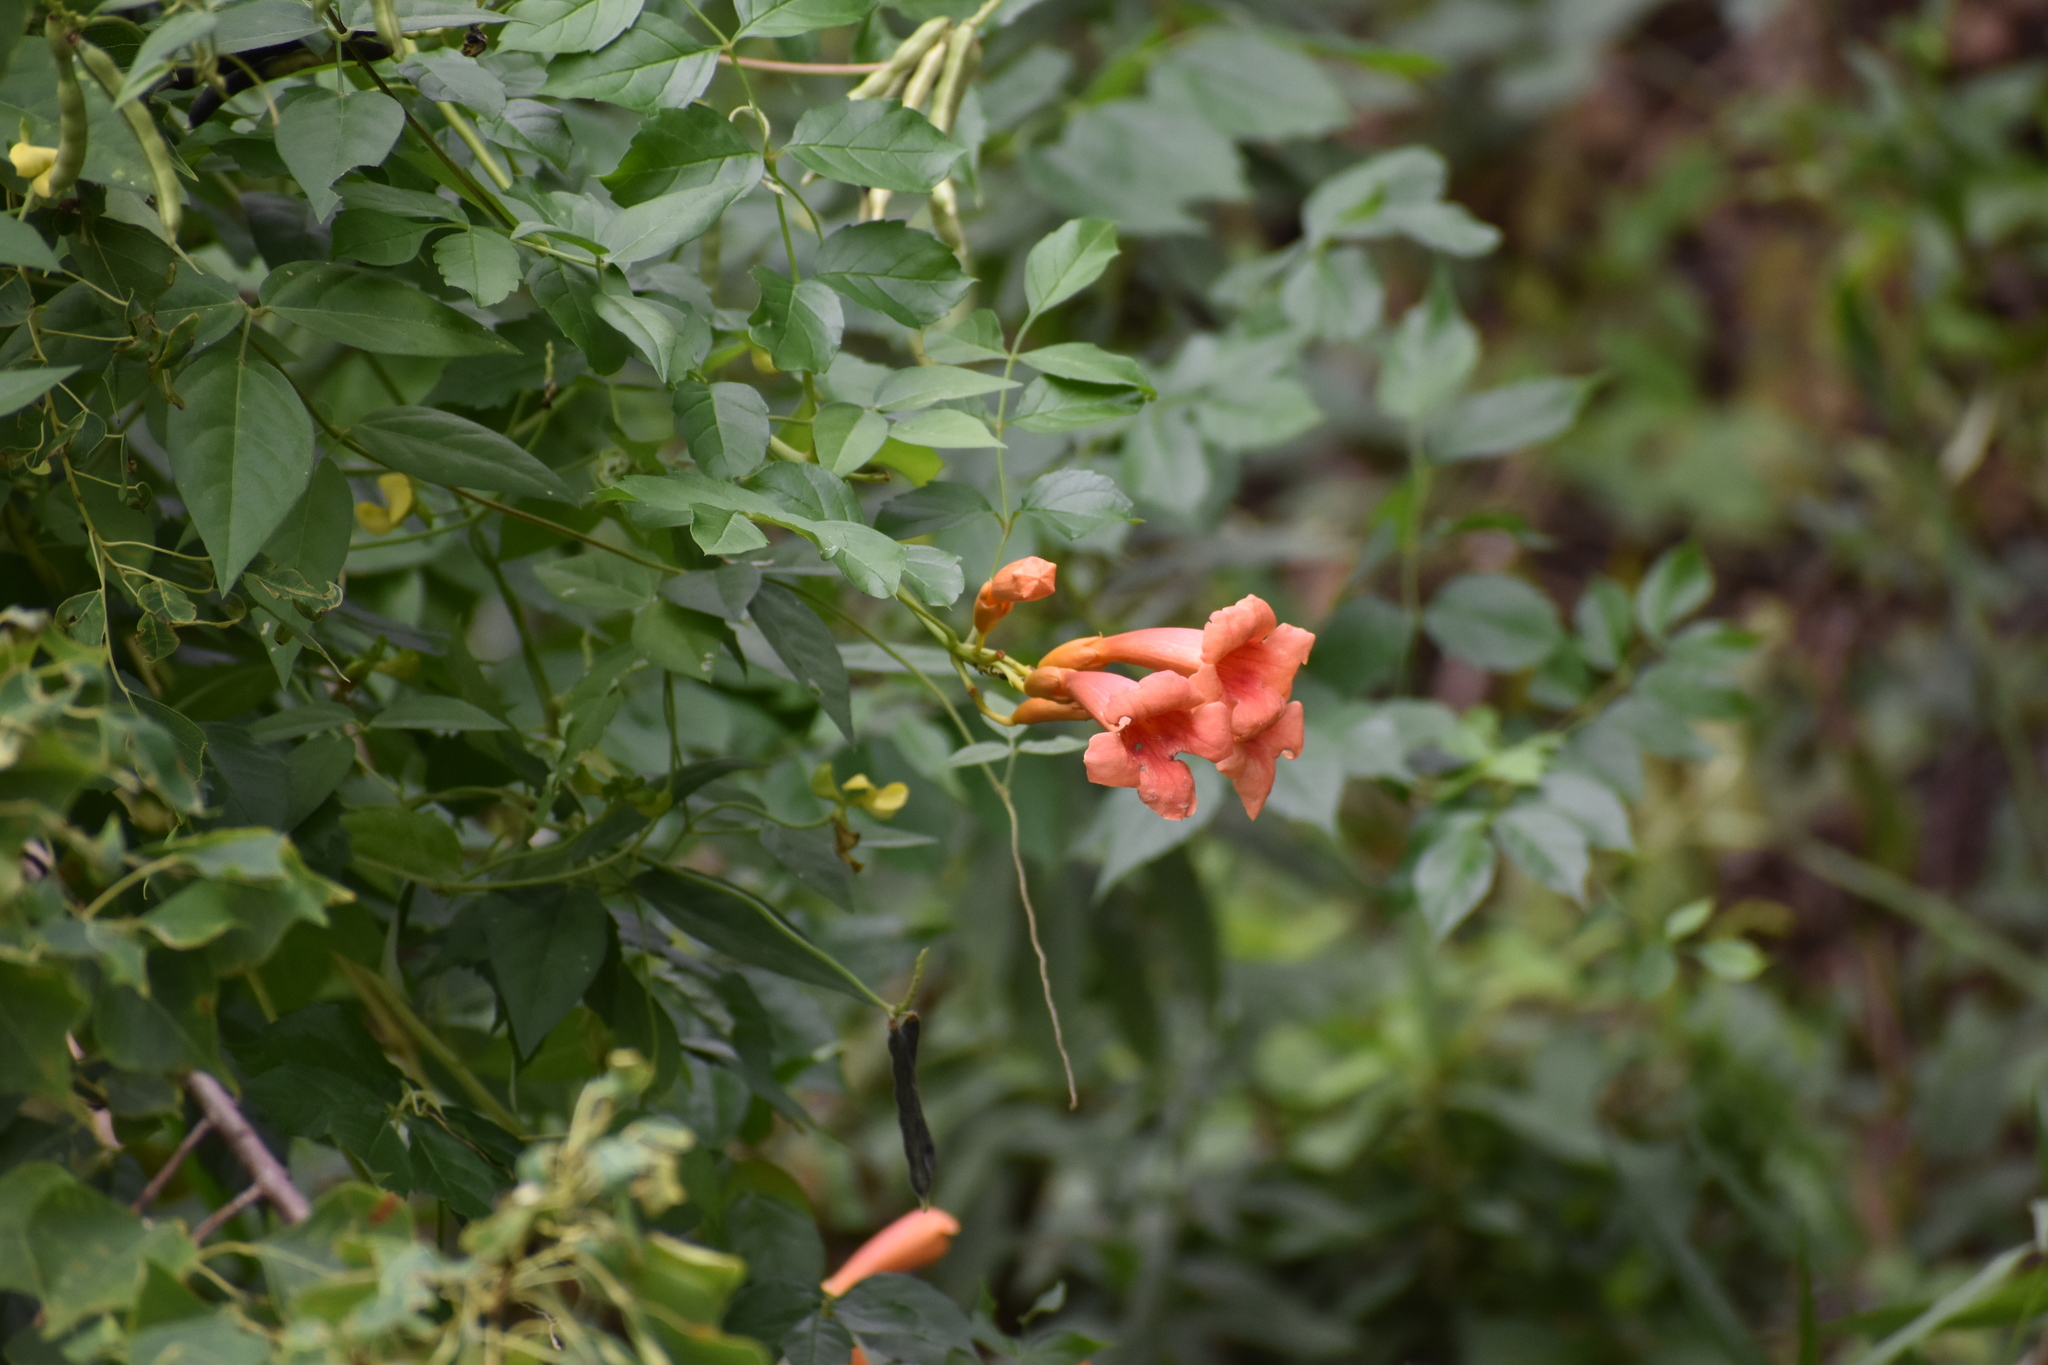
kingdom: Plantae
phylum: Tracheophyta
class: Magnoliopsida
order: Lamiales
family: Bignoniaceae
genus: Campsis
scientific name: Campsis radicans
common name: Trumpet-creeper
